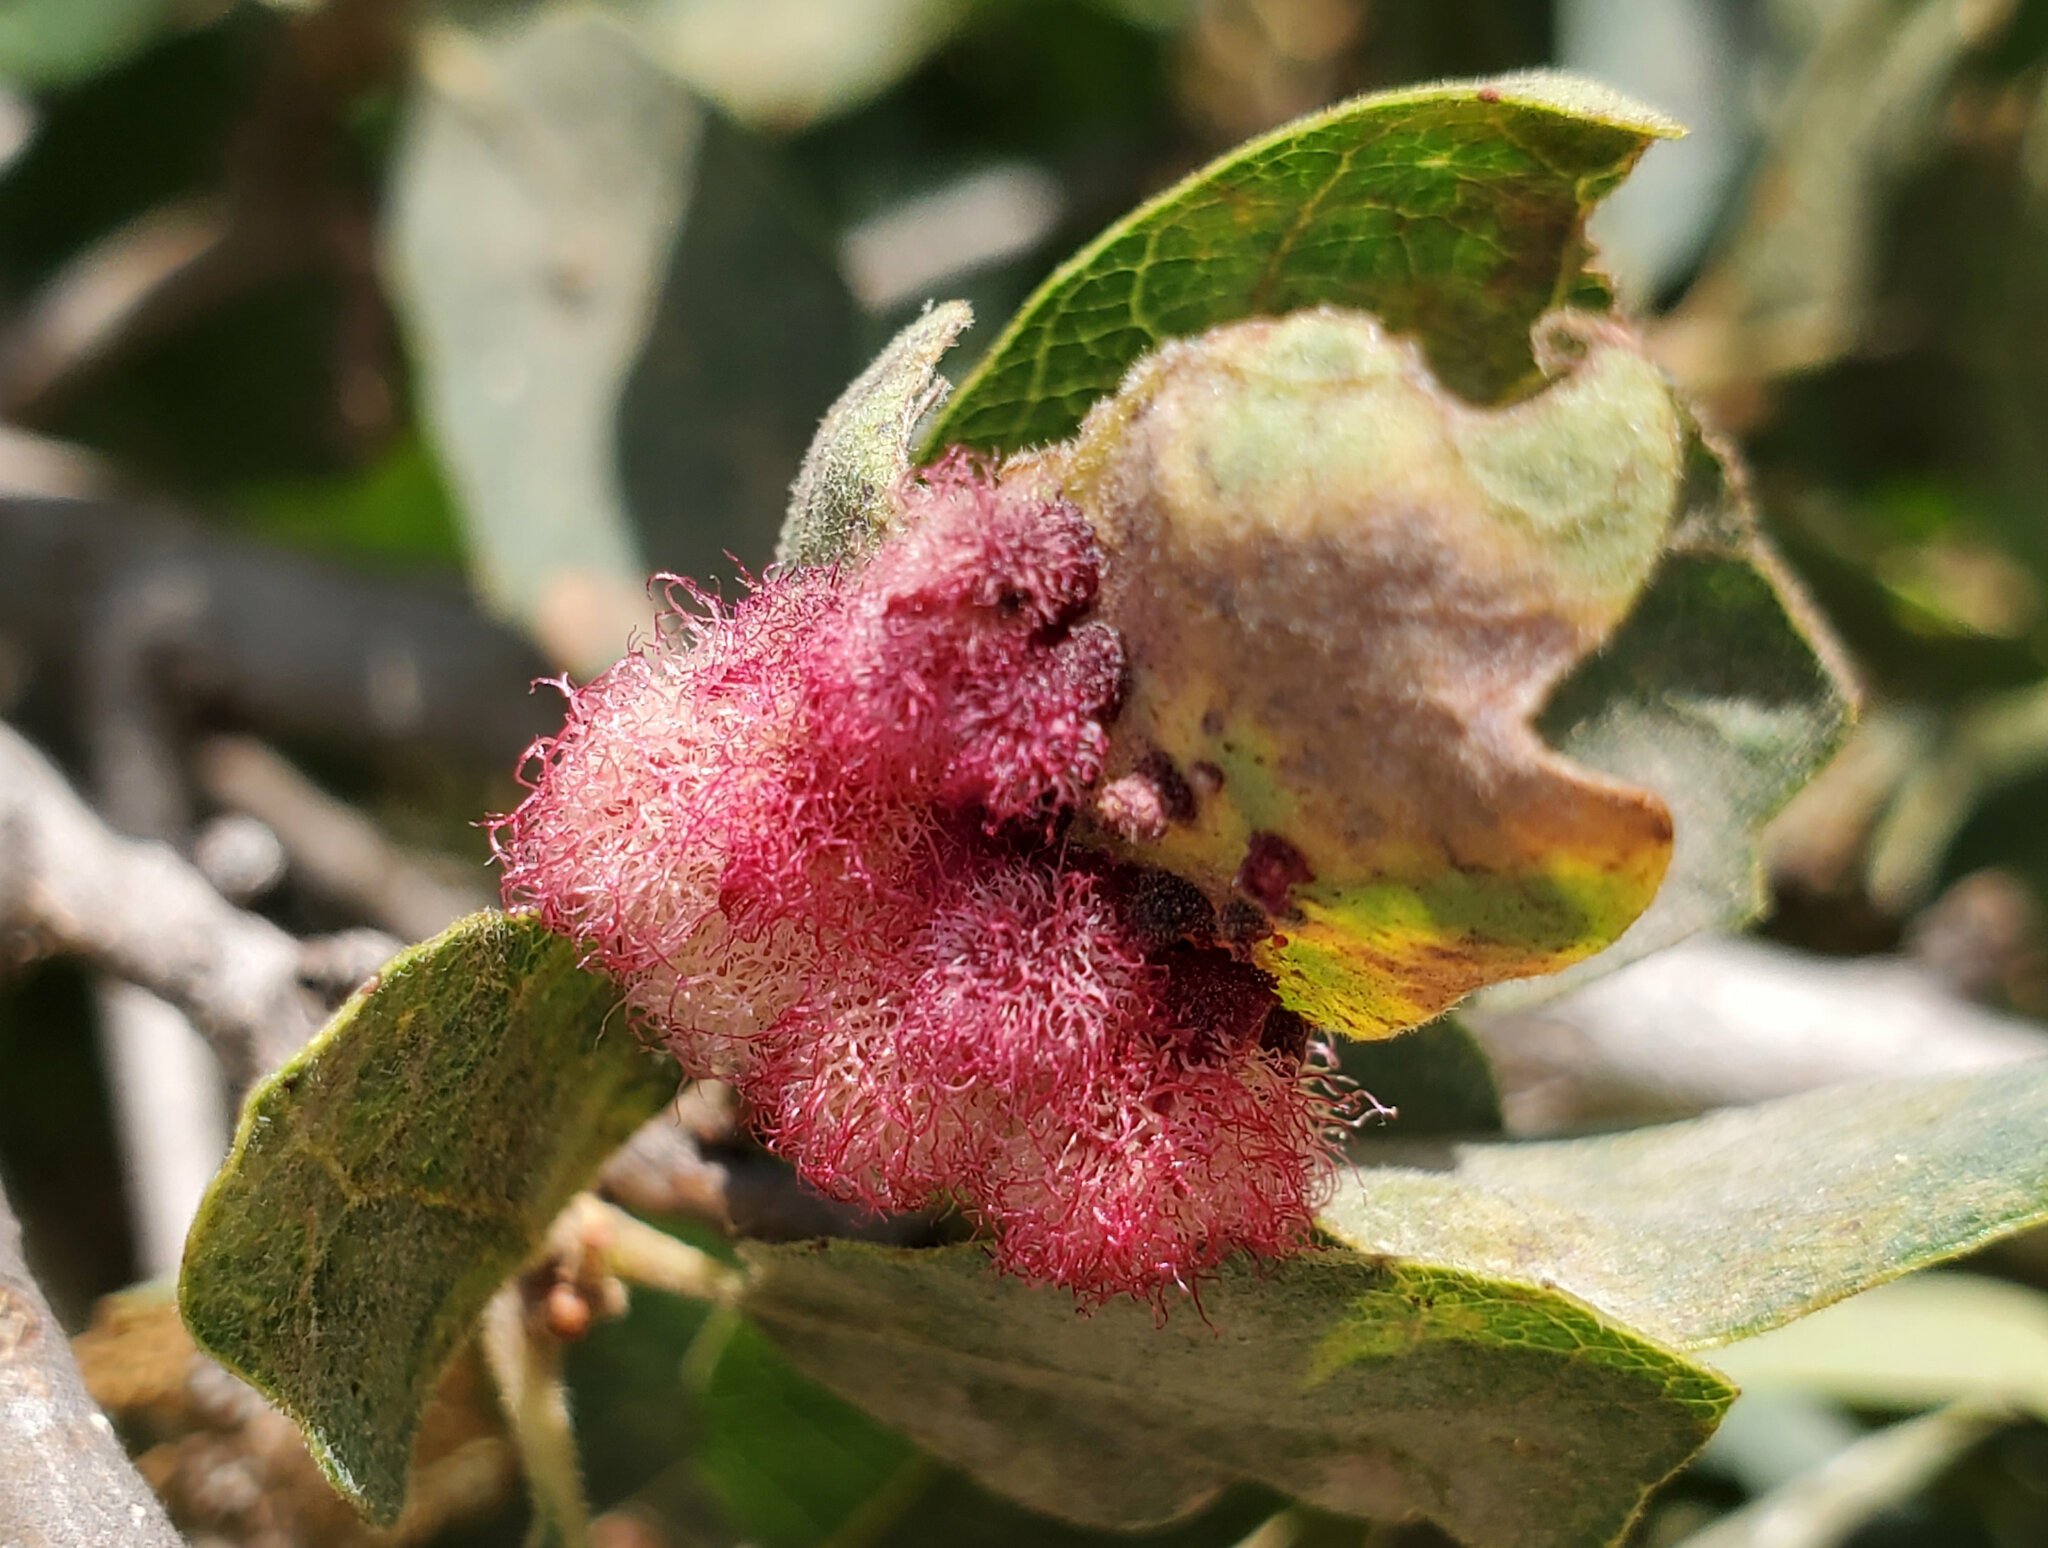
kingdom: Animalia
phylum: Arthropoda
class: Insecta
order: Hymenoptera
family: Cynipidae
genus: Andricus
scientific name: Andricus
